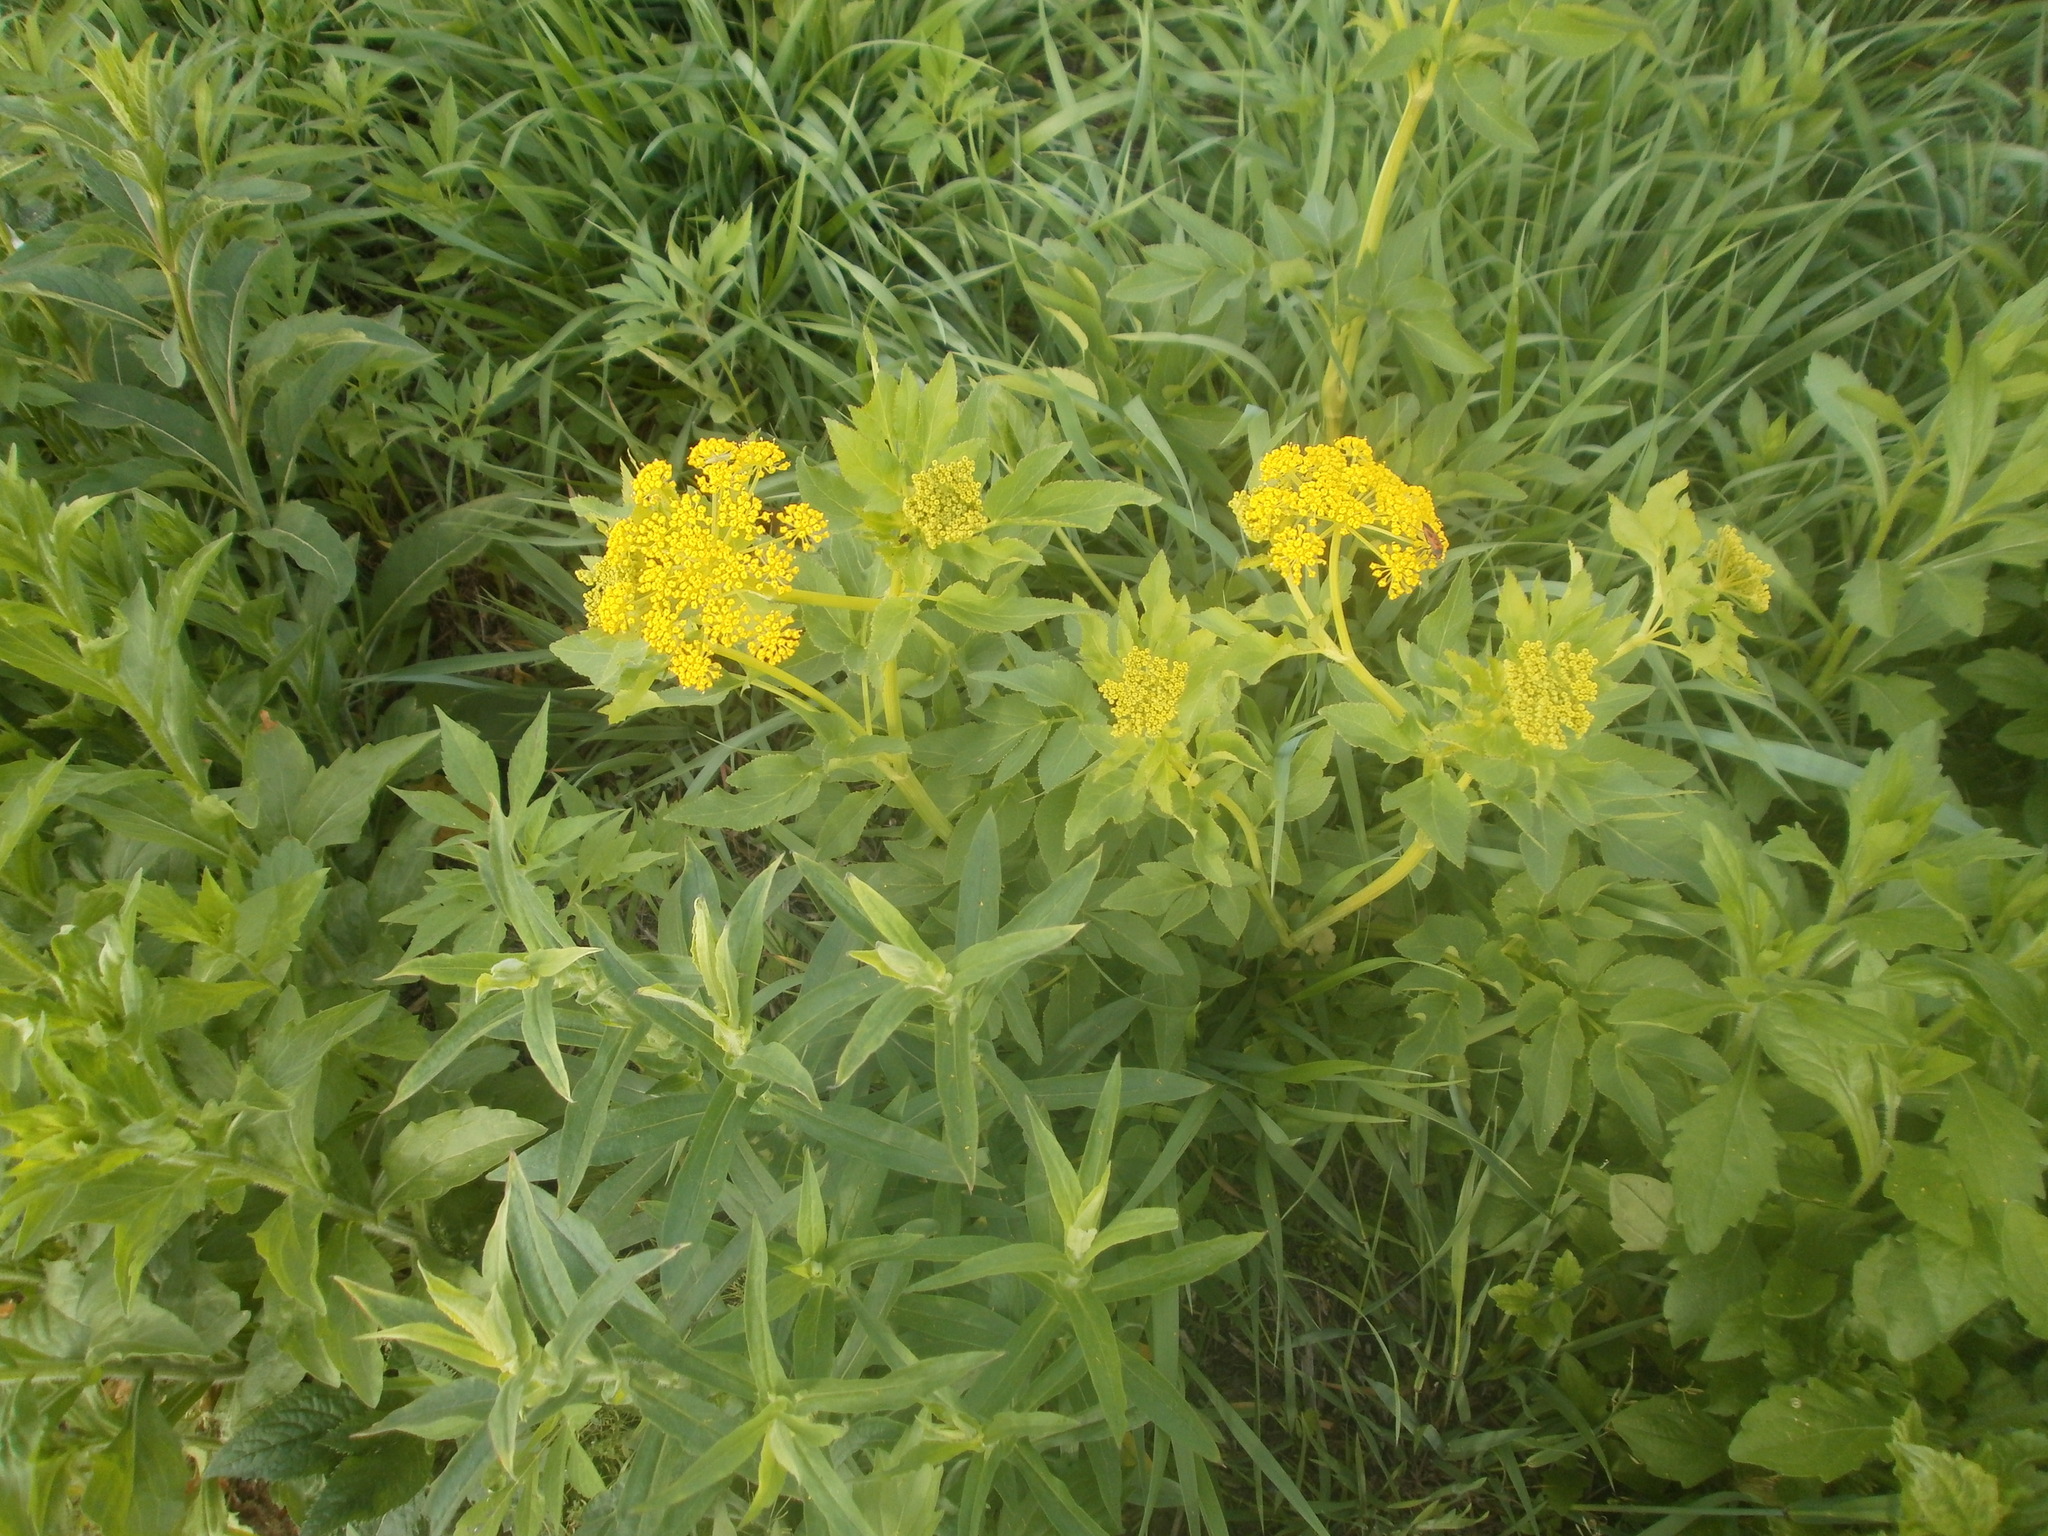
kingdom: Plantae
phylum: Tracheophyta
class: Magnoliopsida
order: Apiales
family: Apiaceae
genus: Zizia
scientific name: Zizia aurea
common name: Golden alexanders
